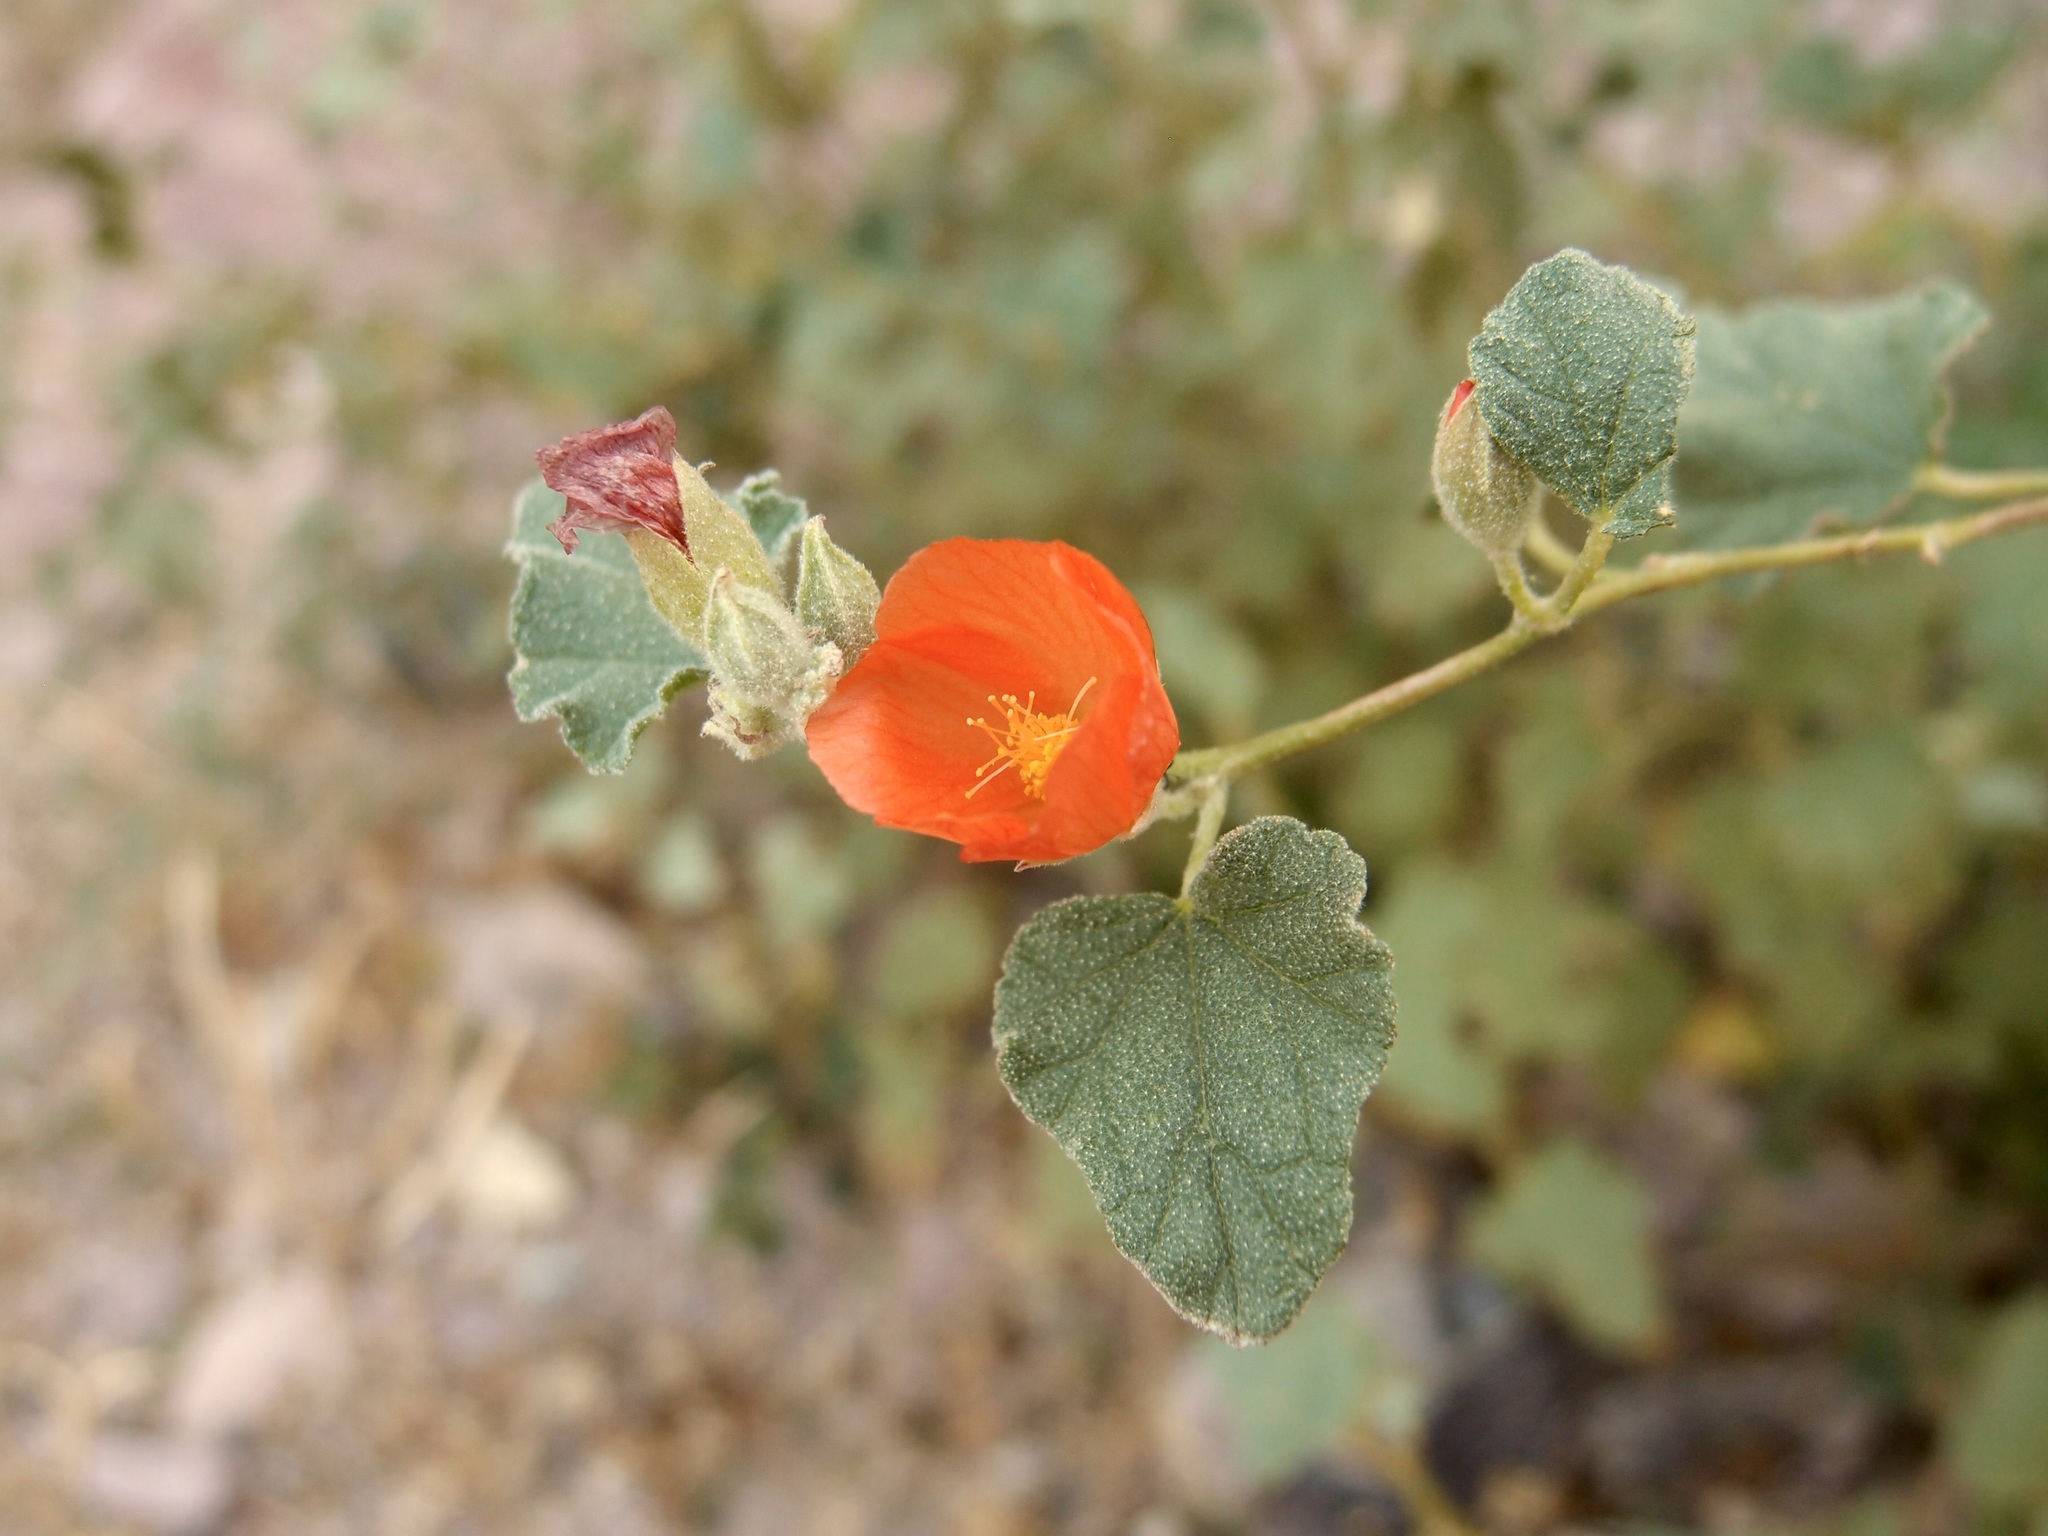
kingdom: Plantae
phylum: Tracheophyta
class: Magnoliopsida
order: Malvales
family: Malvaceae
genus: Sphaeralcea
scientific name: Sphaeralcea ambigua
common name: Apricot globe-mallow
